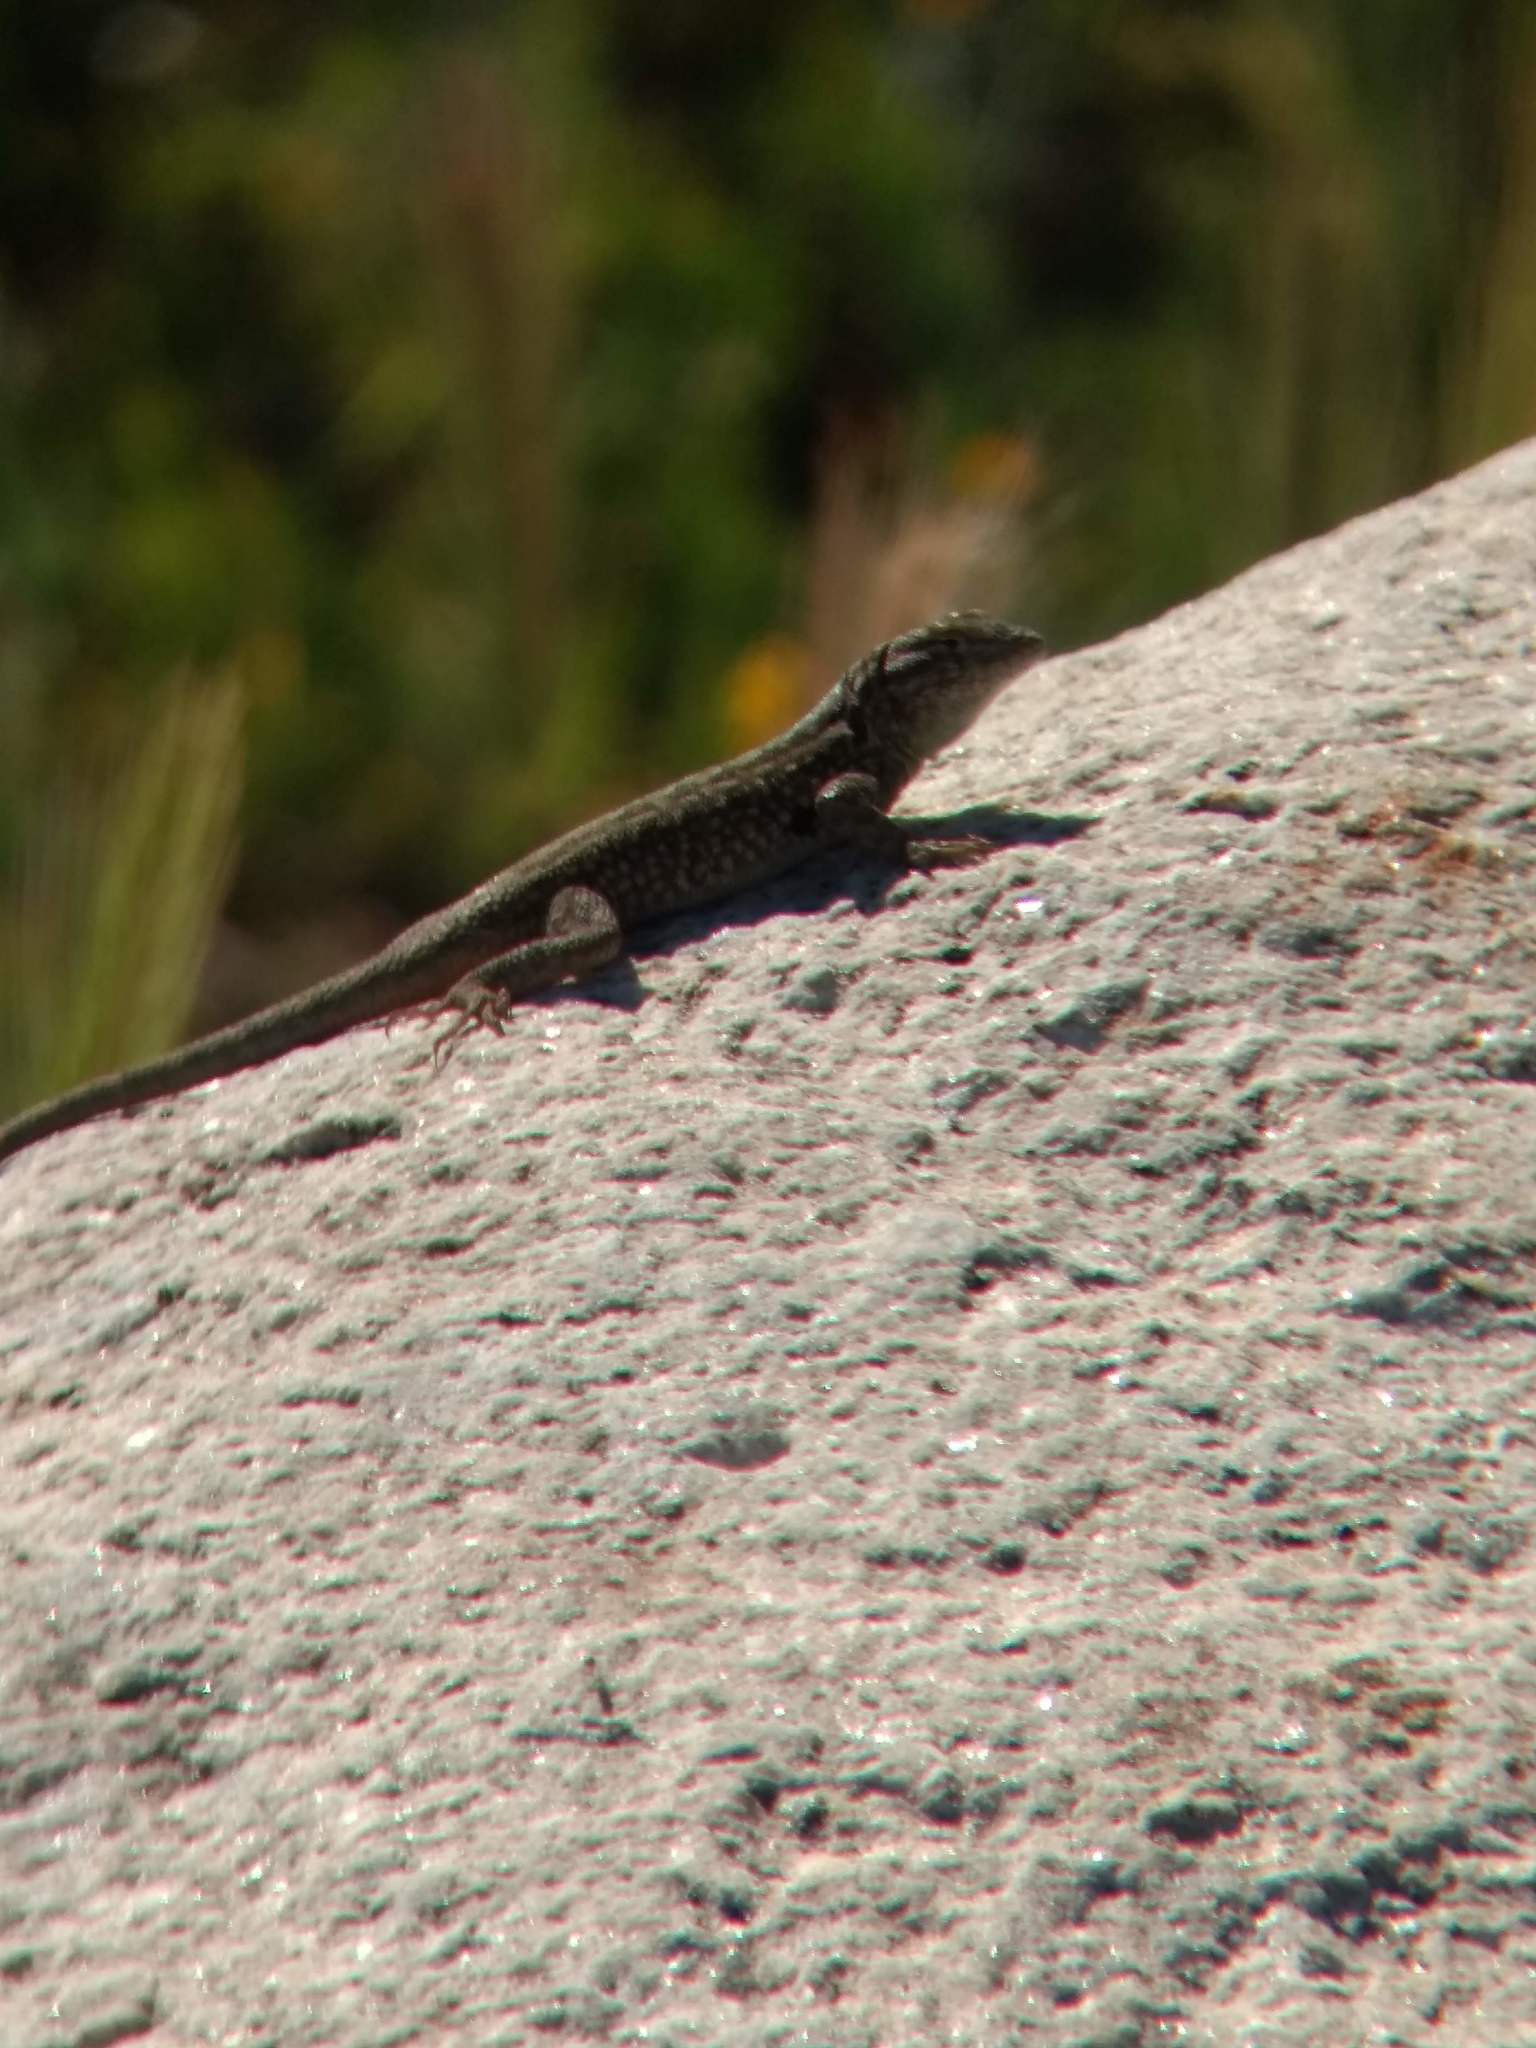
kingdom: Animalia
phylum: Chordata
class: Squamata
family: Phrynosomatidae
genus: Uta
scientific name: Uta stansburiana
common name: Side-blotched lizard
